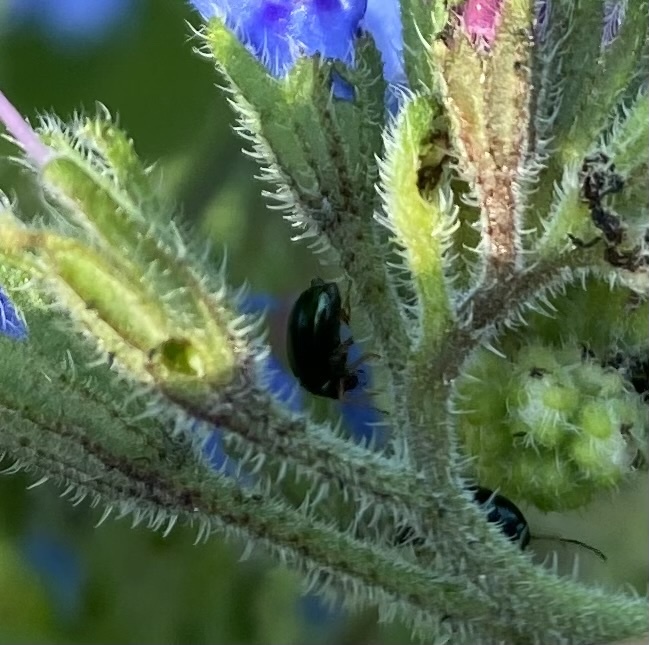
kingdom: Animalia
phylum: Arthropoda
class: Insecta
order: Coleoptera
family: Chrysomelidae
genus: Longitarsus
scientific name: Longitarsus linnaei
